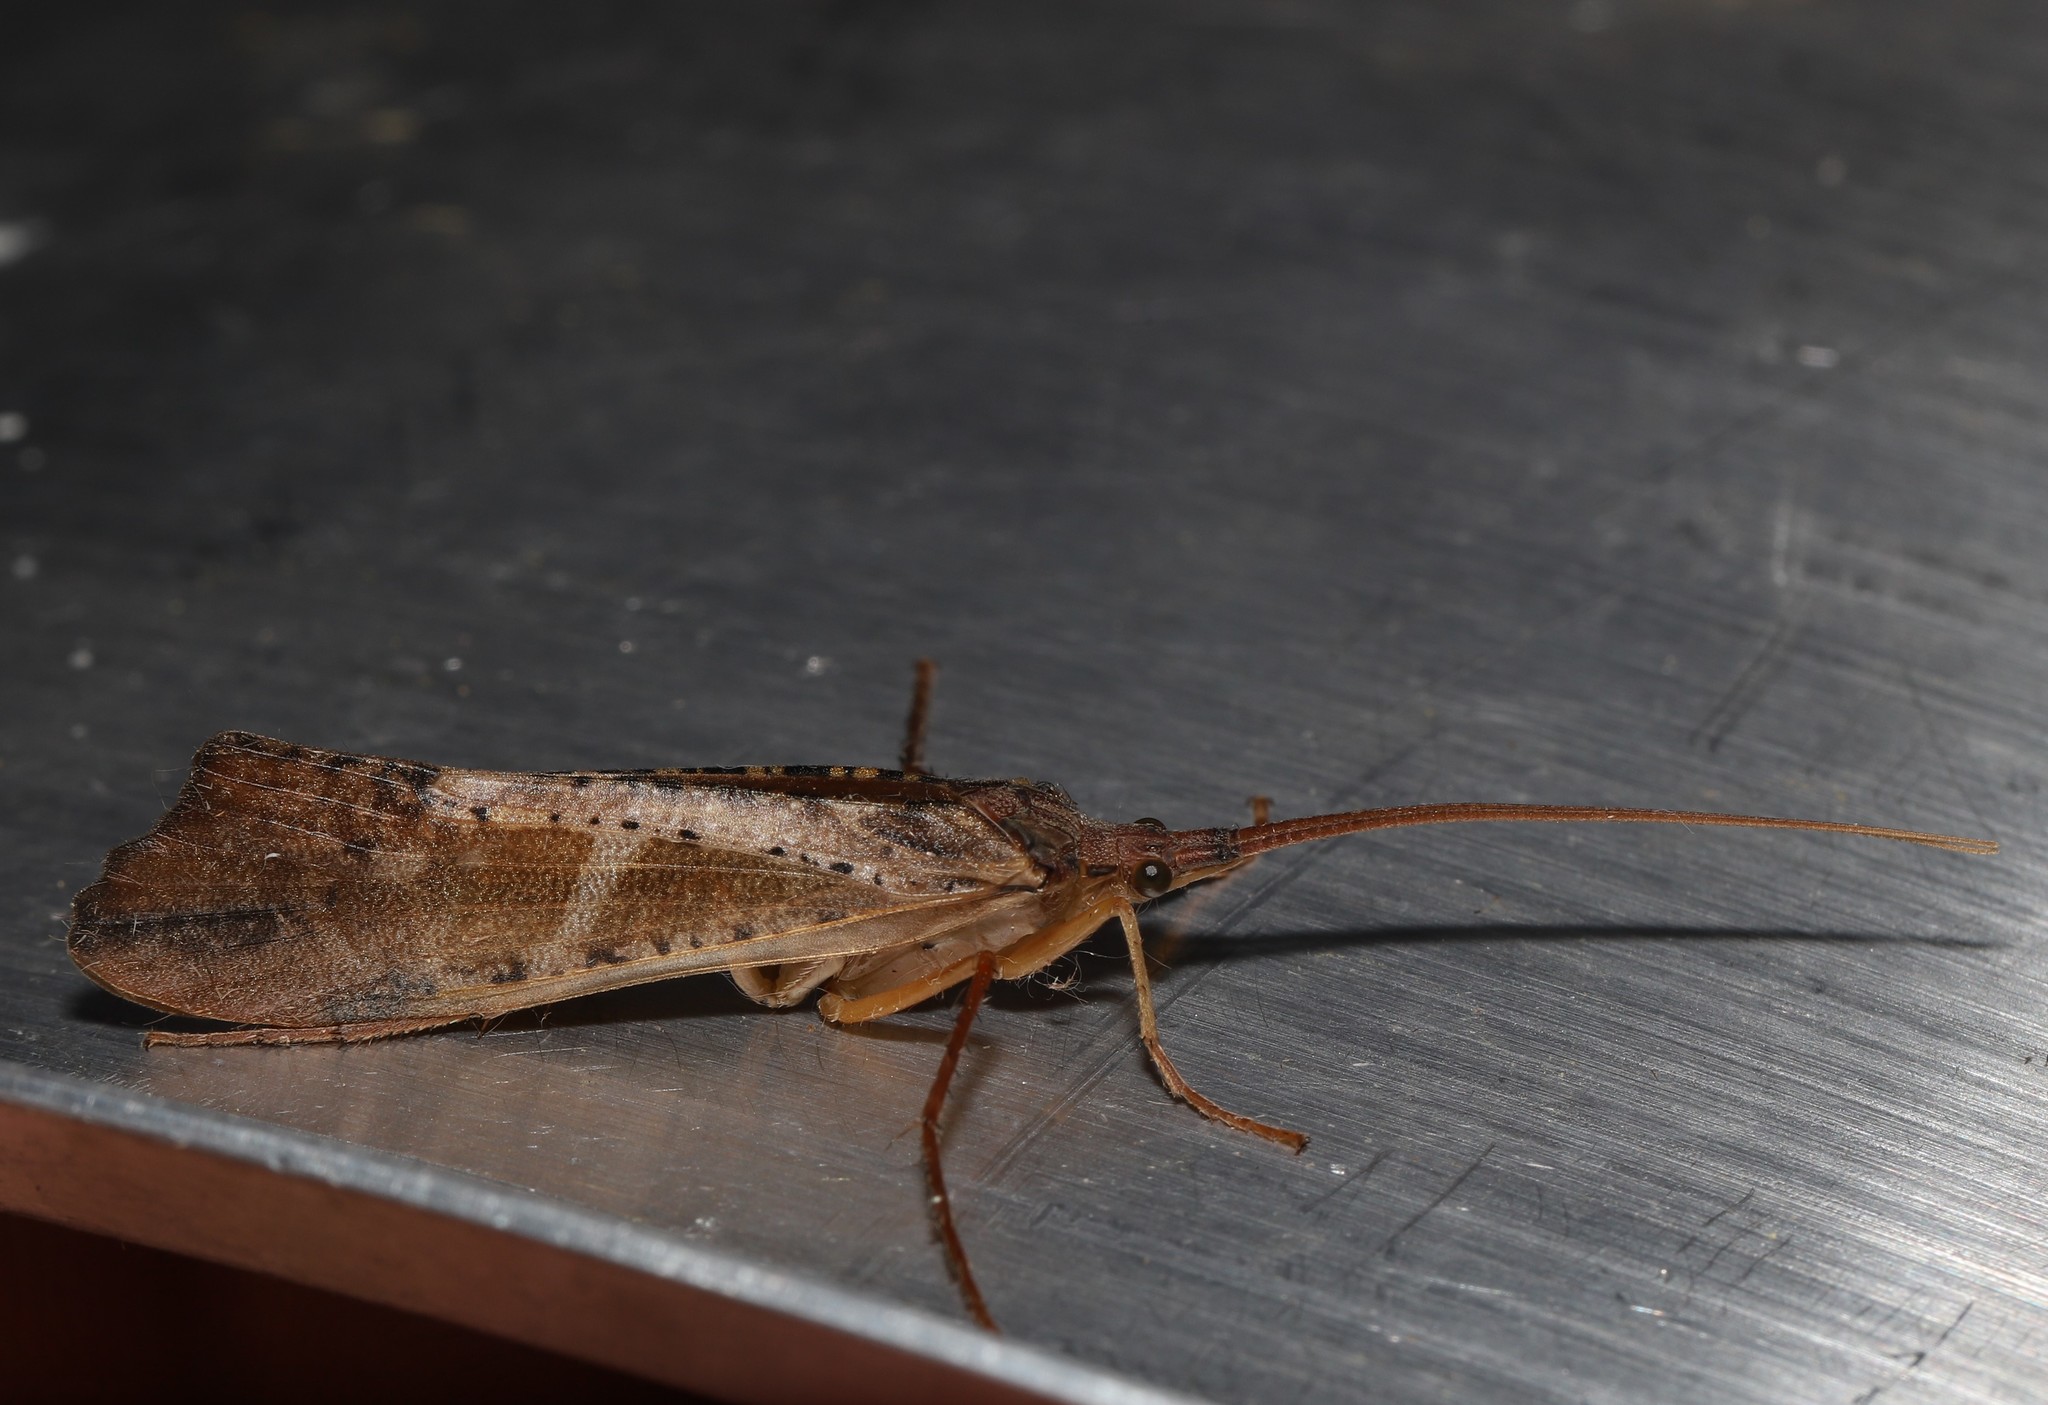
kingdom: Animalia
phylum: Arthropoda
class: Insecta
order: Trichoptera
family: Limnephilidae
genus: Nemotaulius
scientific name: Nemotaulius hostilis
